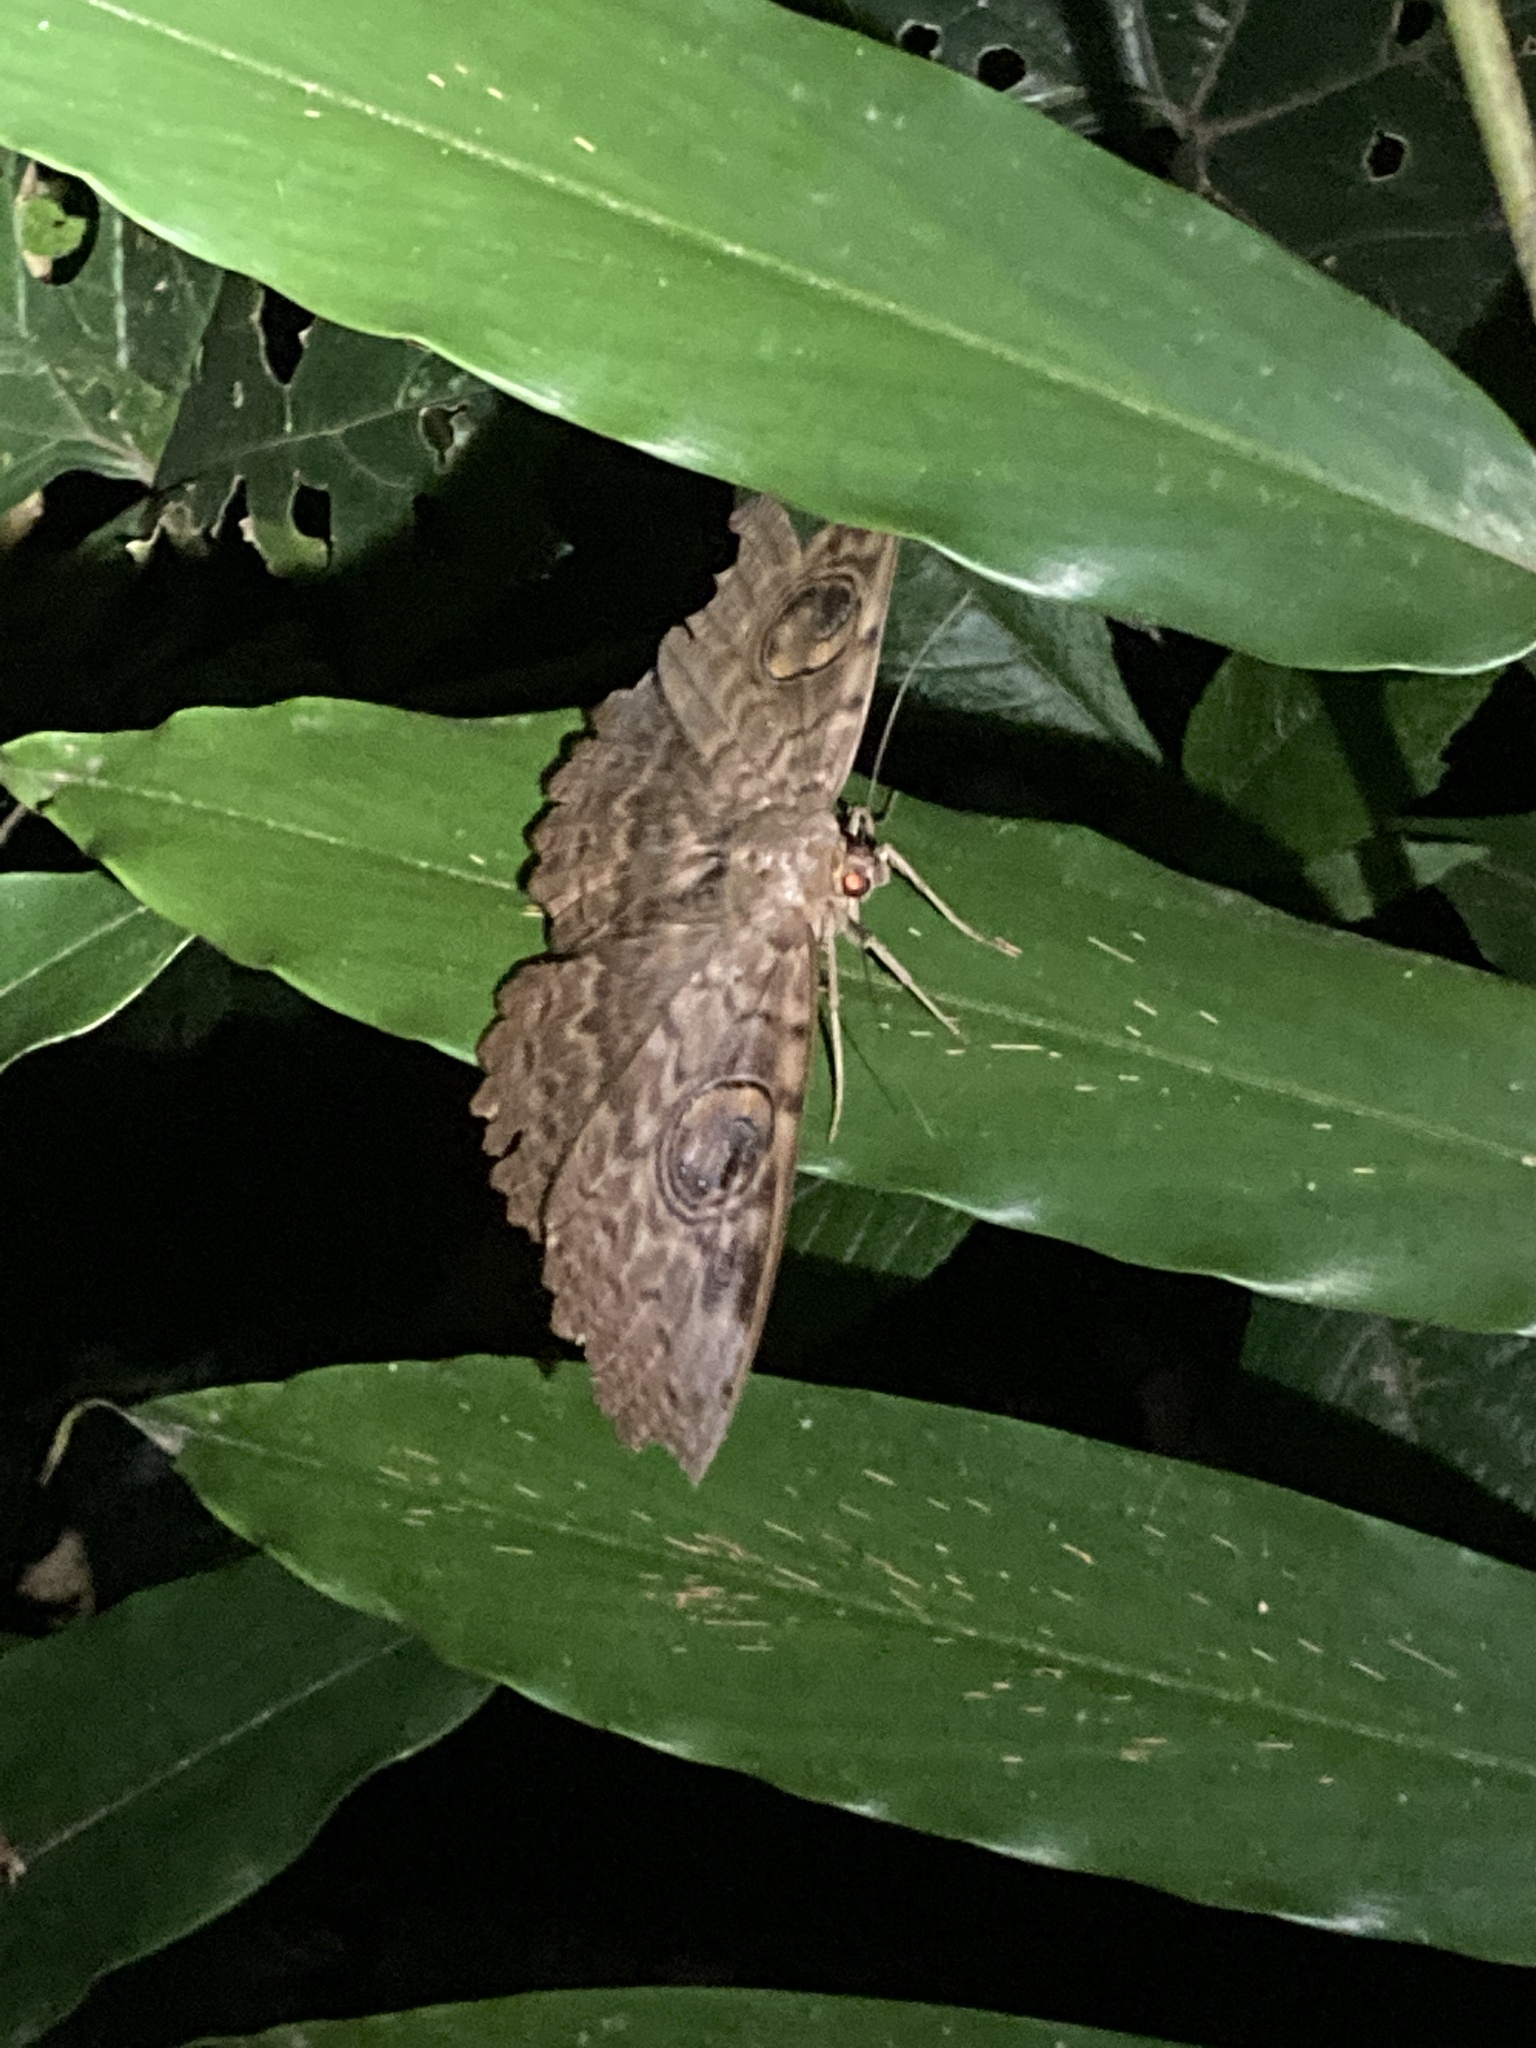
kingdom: Animalia
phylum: Arthropoda
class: Insecta
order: Lepidoptera
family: Erebidae
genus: Erebus
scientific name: Erebus walkeri
